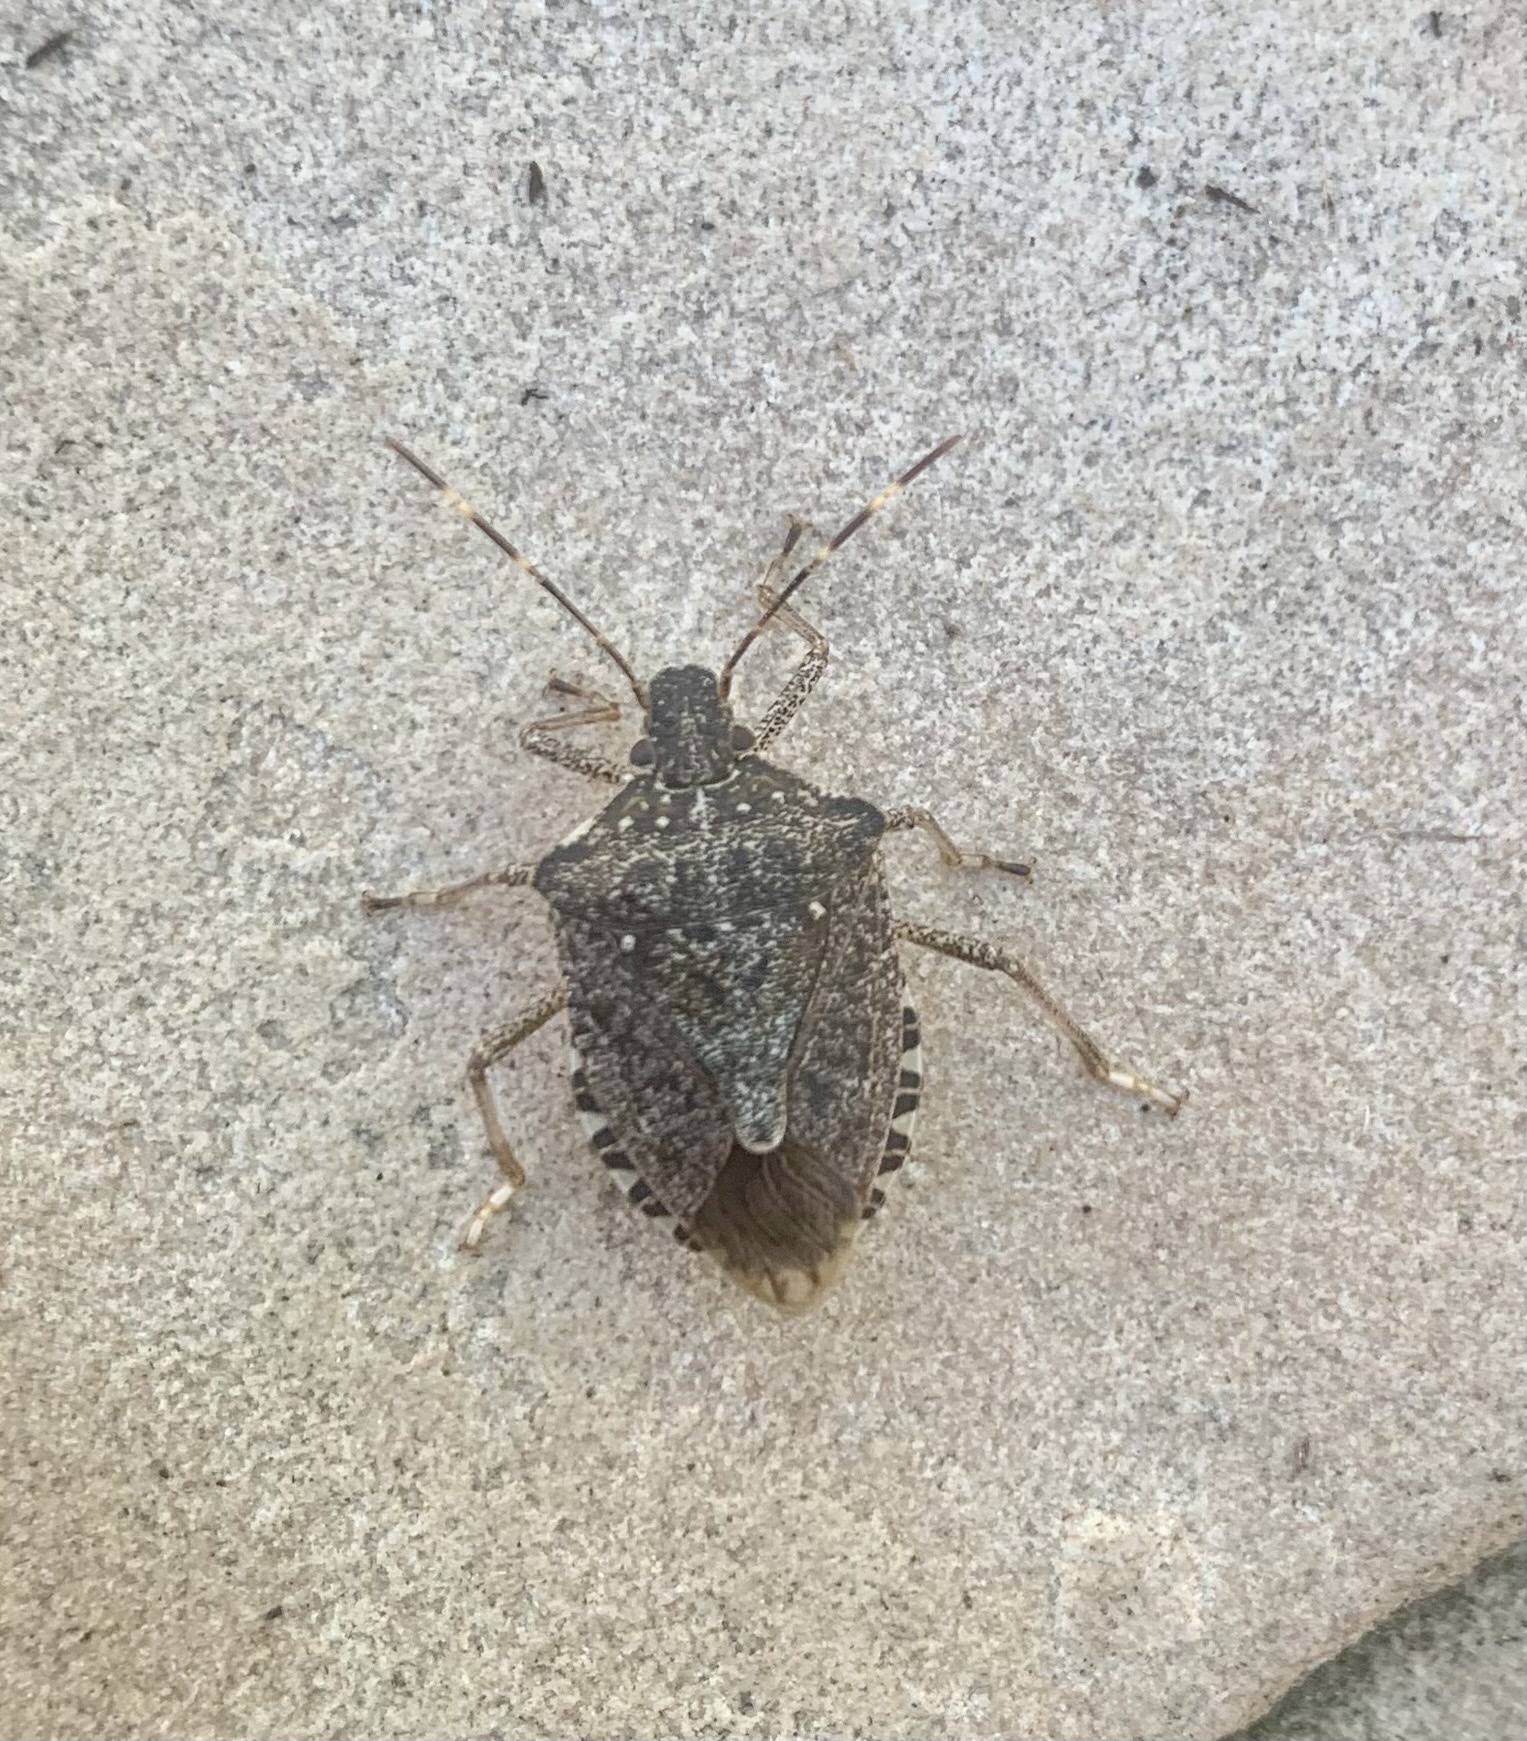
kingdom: Animalia
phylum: Arthropoda
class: Insecta
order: Hemiptera
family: Pentatomidae
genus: Halyomorpha
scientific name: Halyomorpha halys
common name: Brown marmorated stink bug
